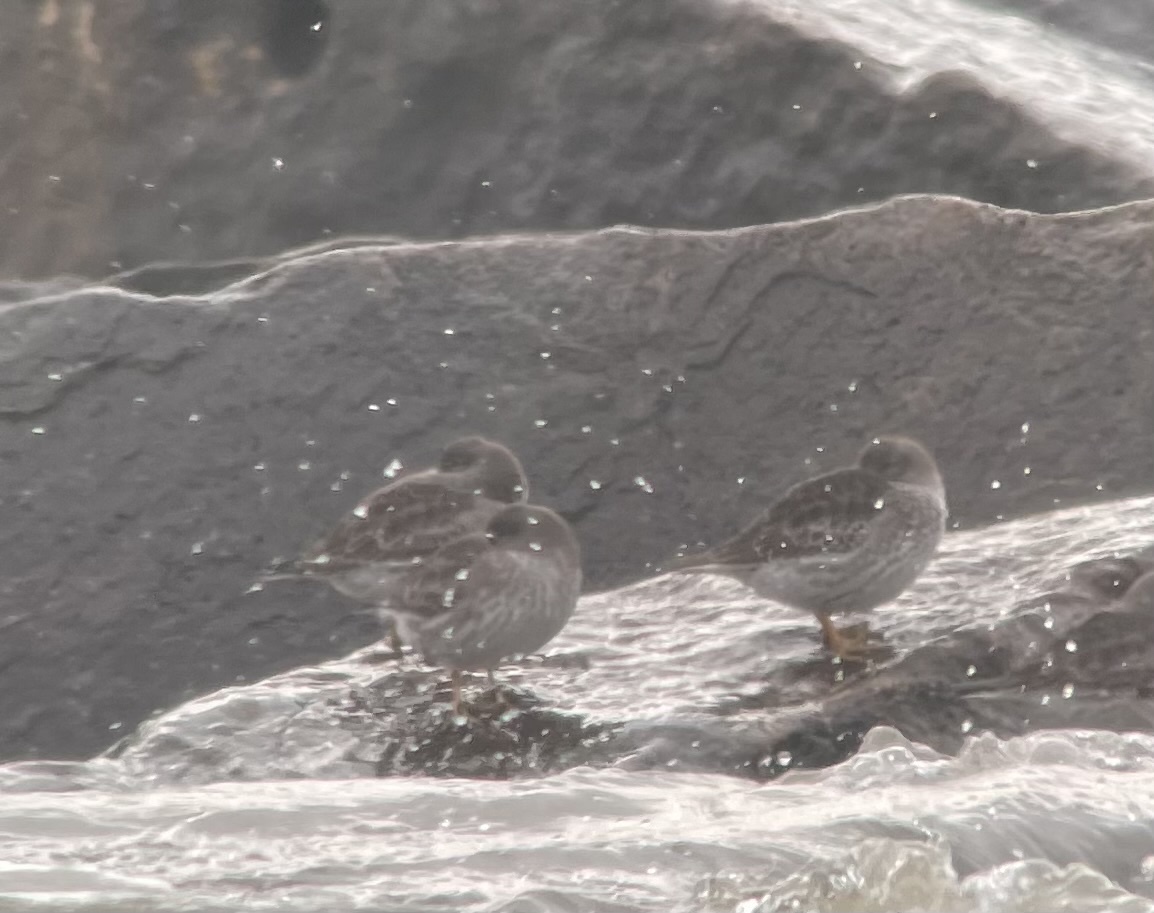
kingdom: Animalia
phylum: Chordata
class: Aves
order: Charadriiformes
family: Scolopacidae
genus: Calidris
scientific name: Calidris maritima
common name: Purple sandpiper
